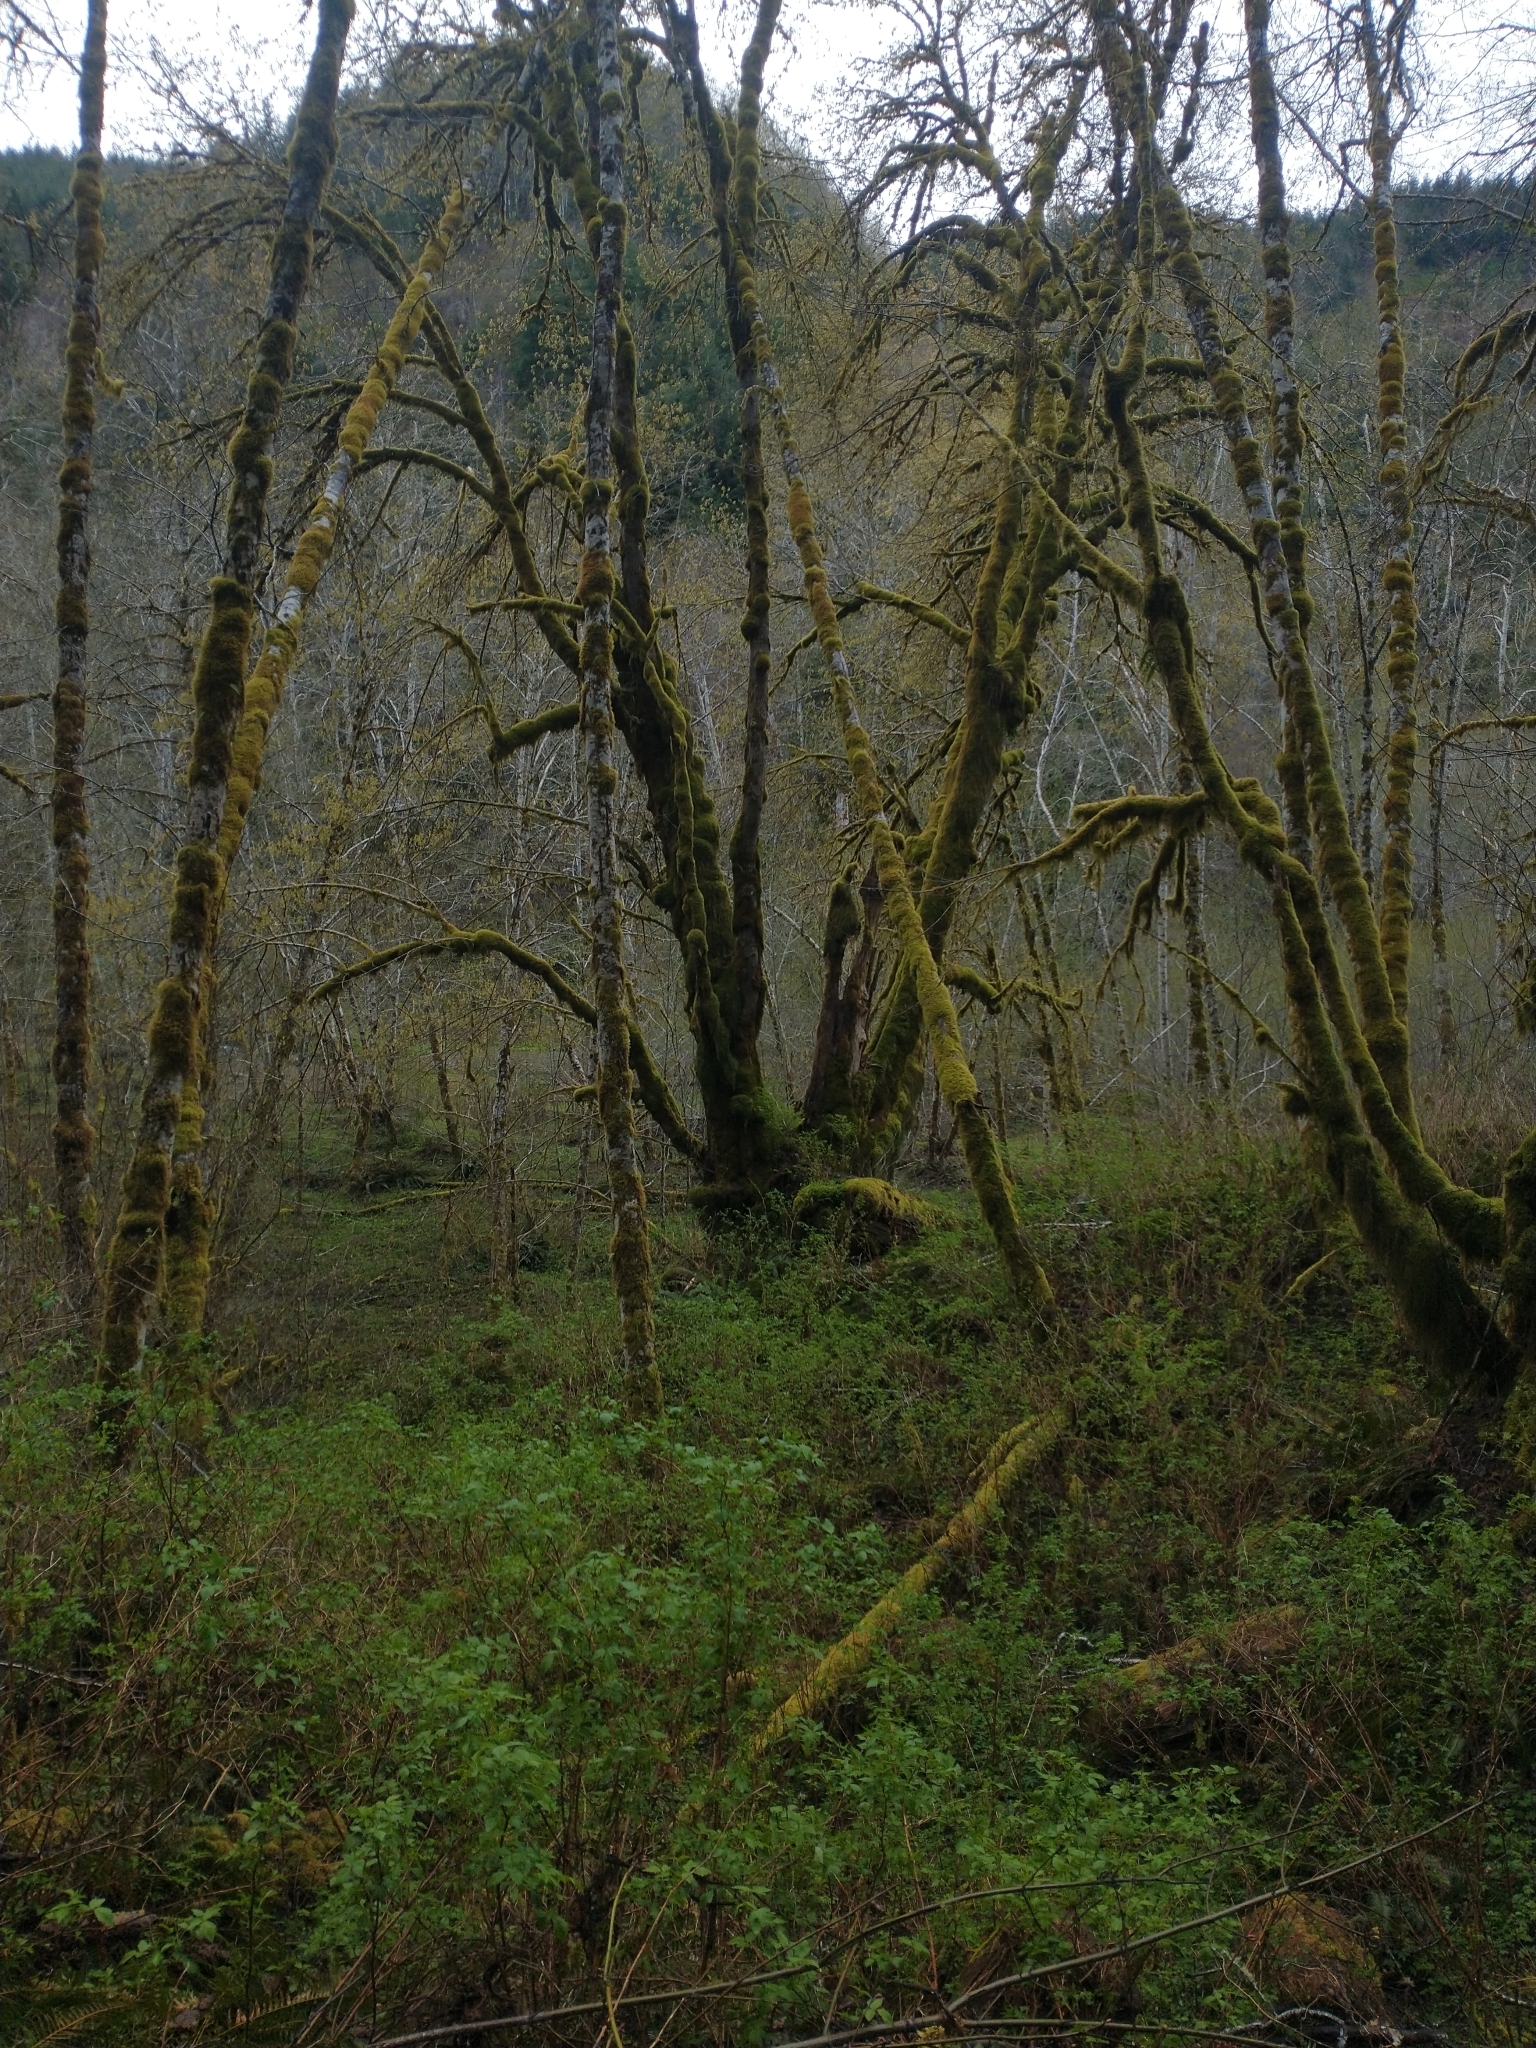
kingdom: Plantae
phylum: Tracheophyta
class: Magnoliopsida
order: Rosales
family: Rosaceae
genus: Rubus
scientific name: Rubus spectabilis
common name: Salmonberry
